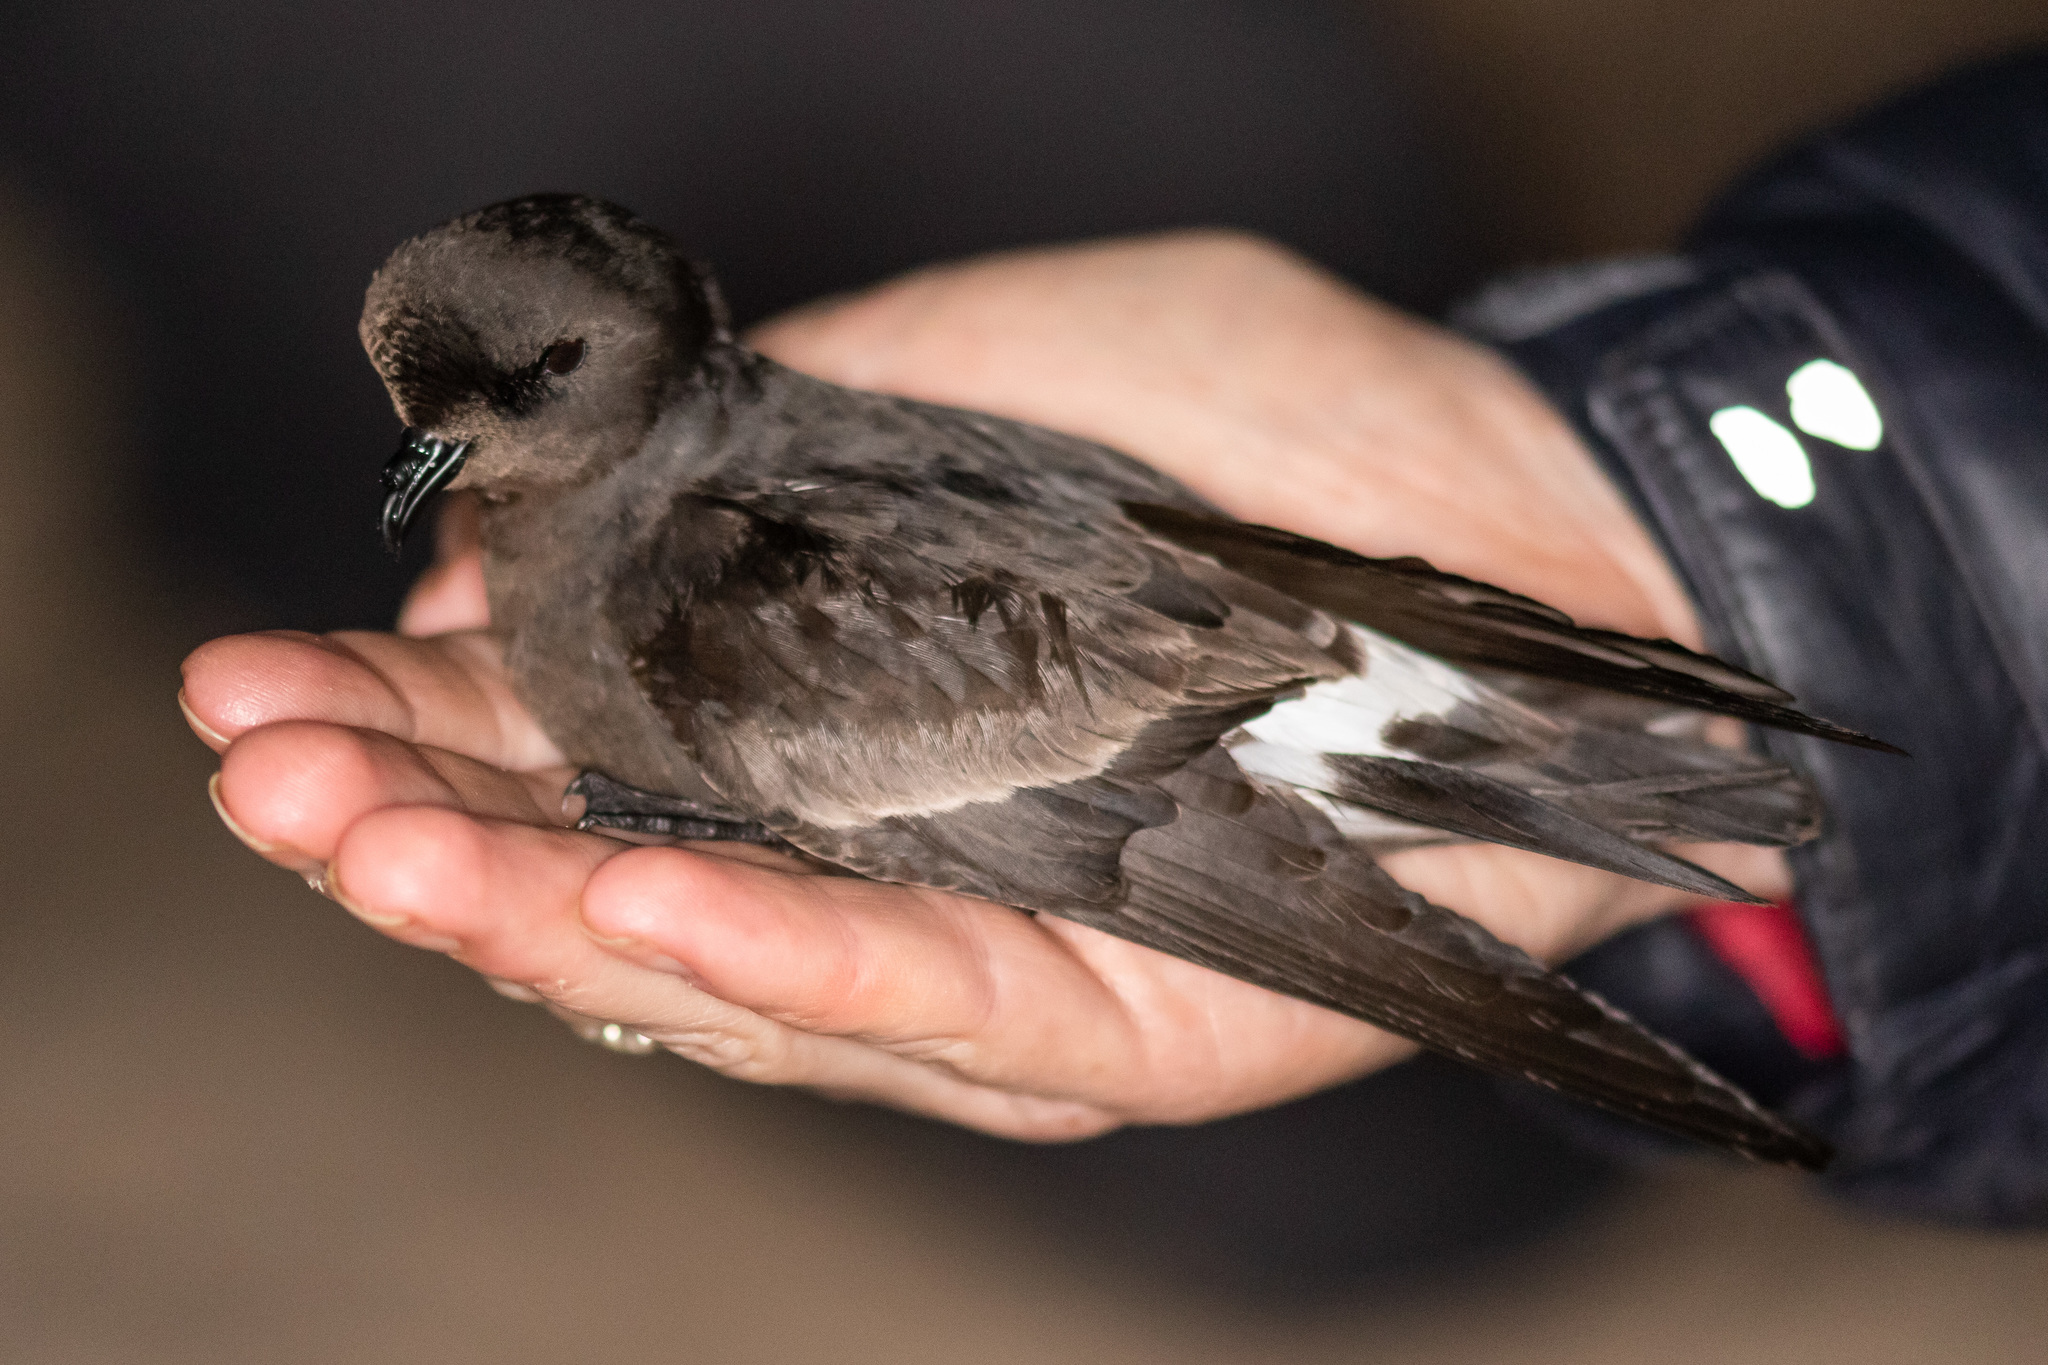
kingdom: Animalia
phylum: Chordata
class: Aves
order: Procellariiformes
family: Hydrobatidae
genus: Hydrobates
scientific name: Hydrobates pelagicus
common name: European storm-petrel
